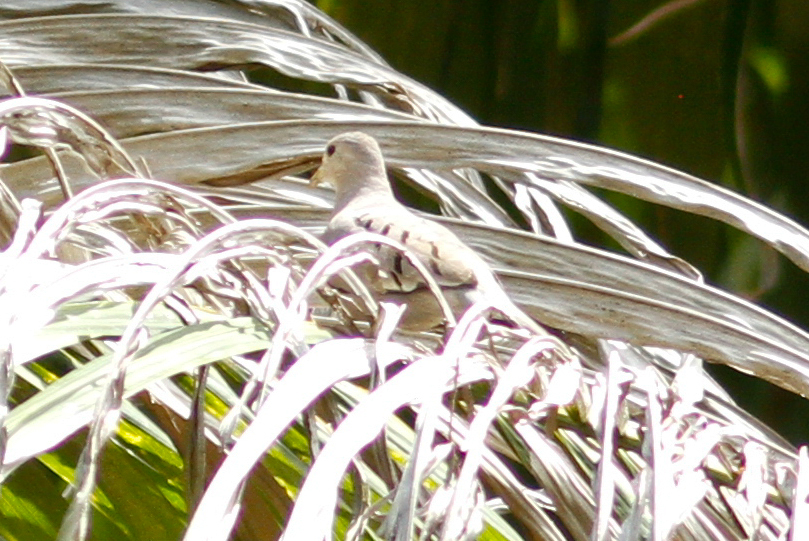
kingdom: Animalia
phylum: Chordata
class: Aves
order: Columbiformes
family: Columbidae
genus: Columbina
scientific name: Columbina buckleyi
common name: Ecuadorian ground dove
